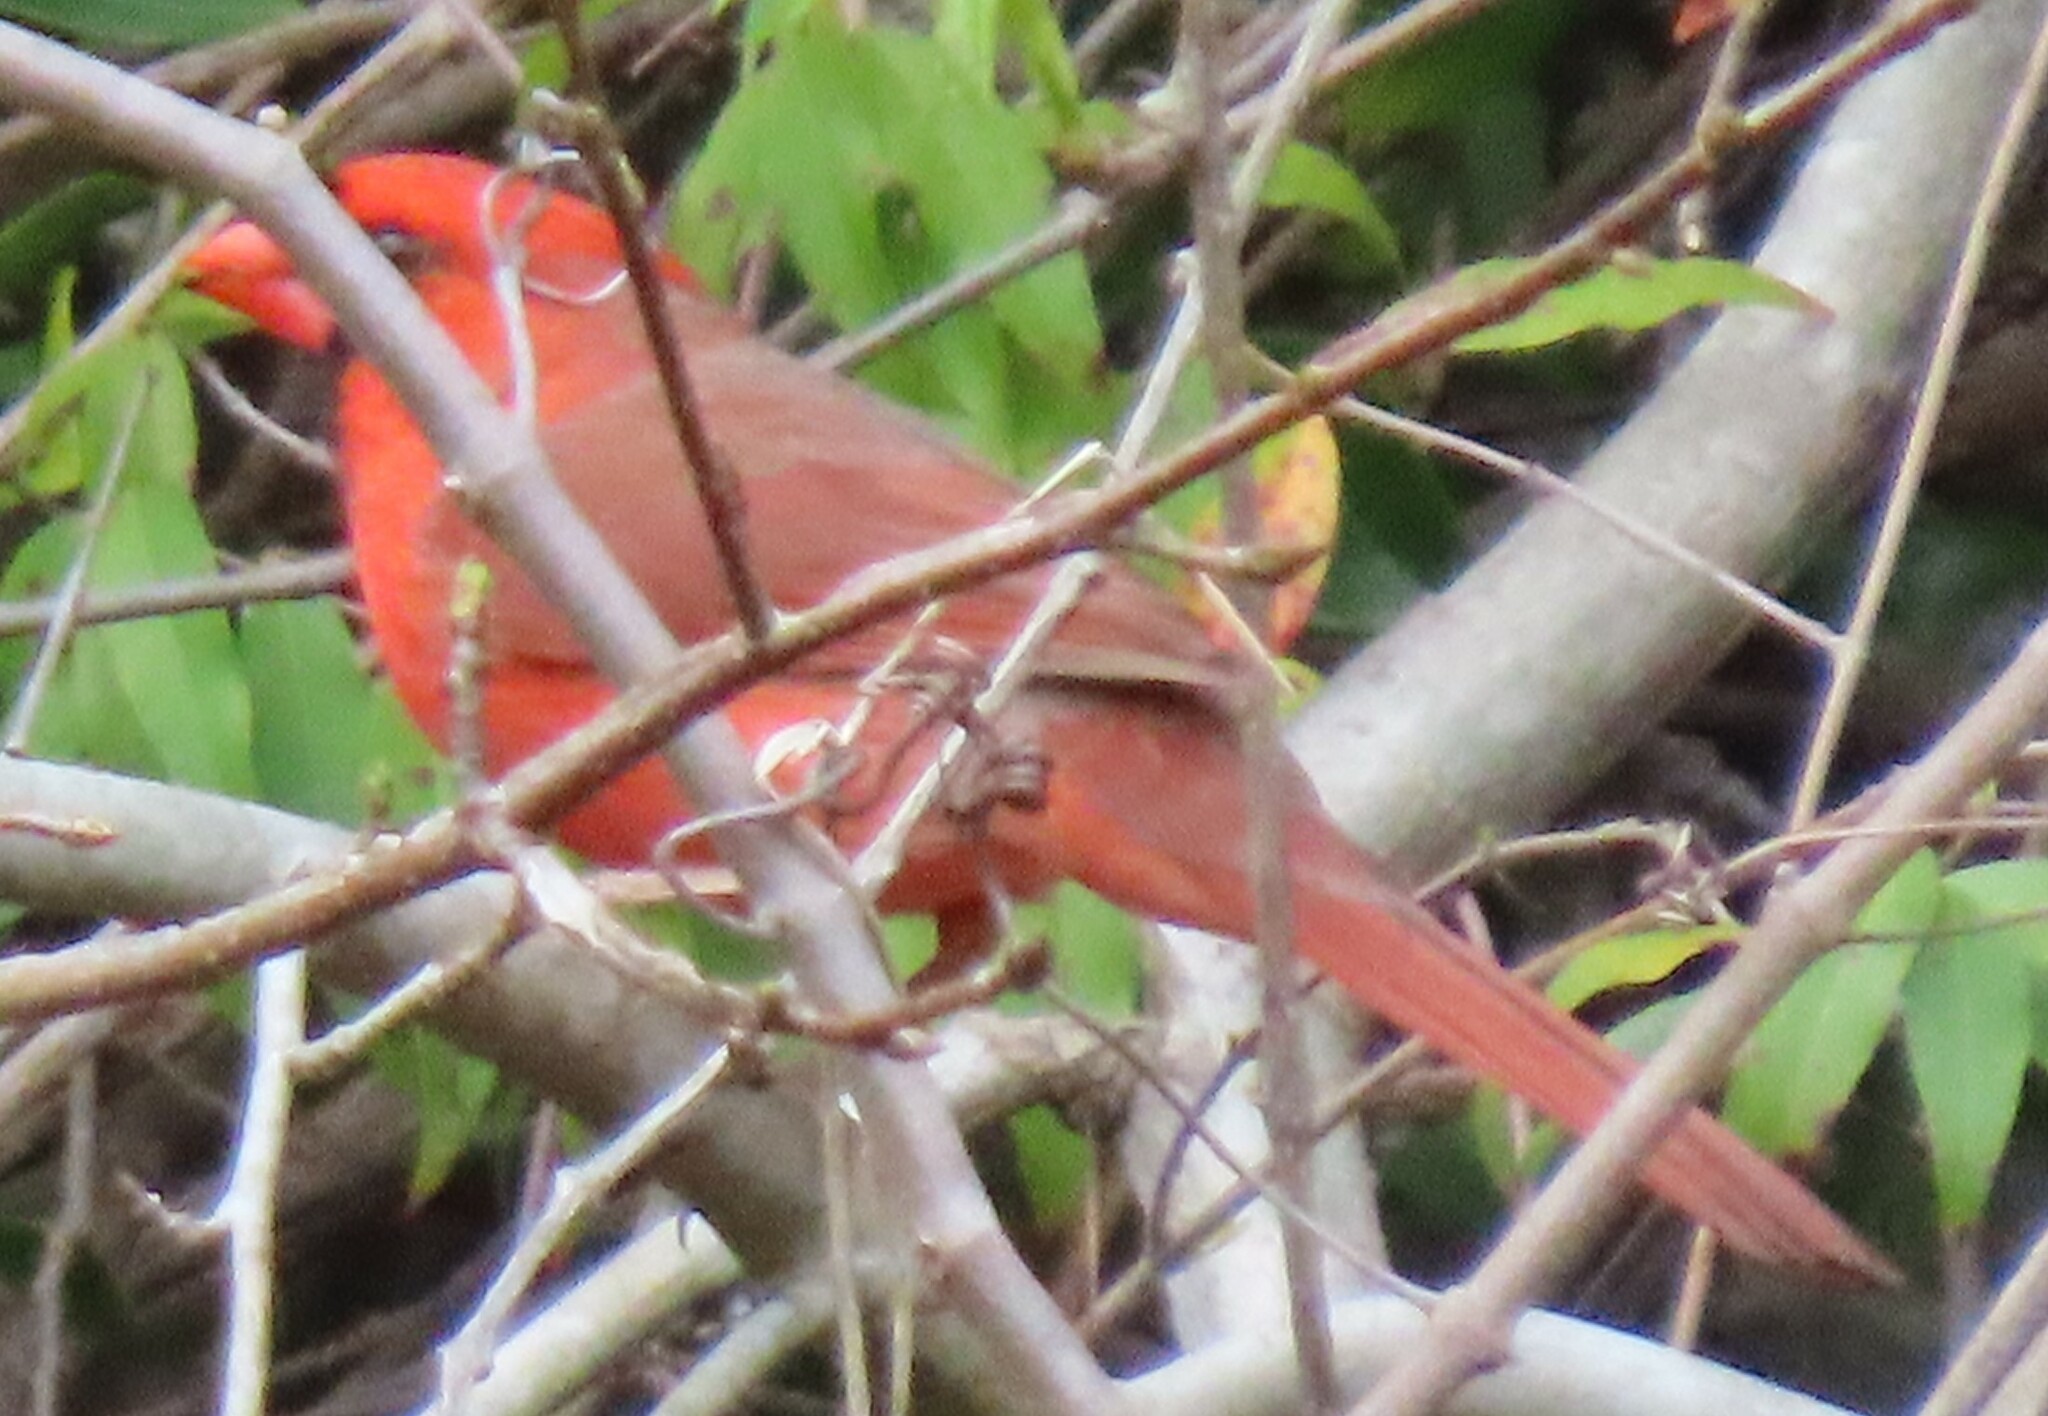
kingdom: Animalia
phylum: Chordata
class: Aves
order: Passeriformes
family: Cardinalidae
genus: Cardinalis
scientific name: Cardinalis cardinalis
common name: Northern cardinal
